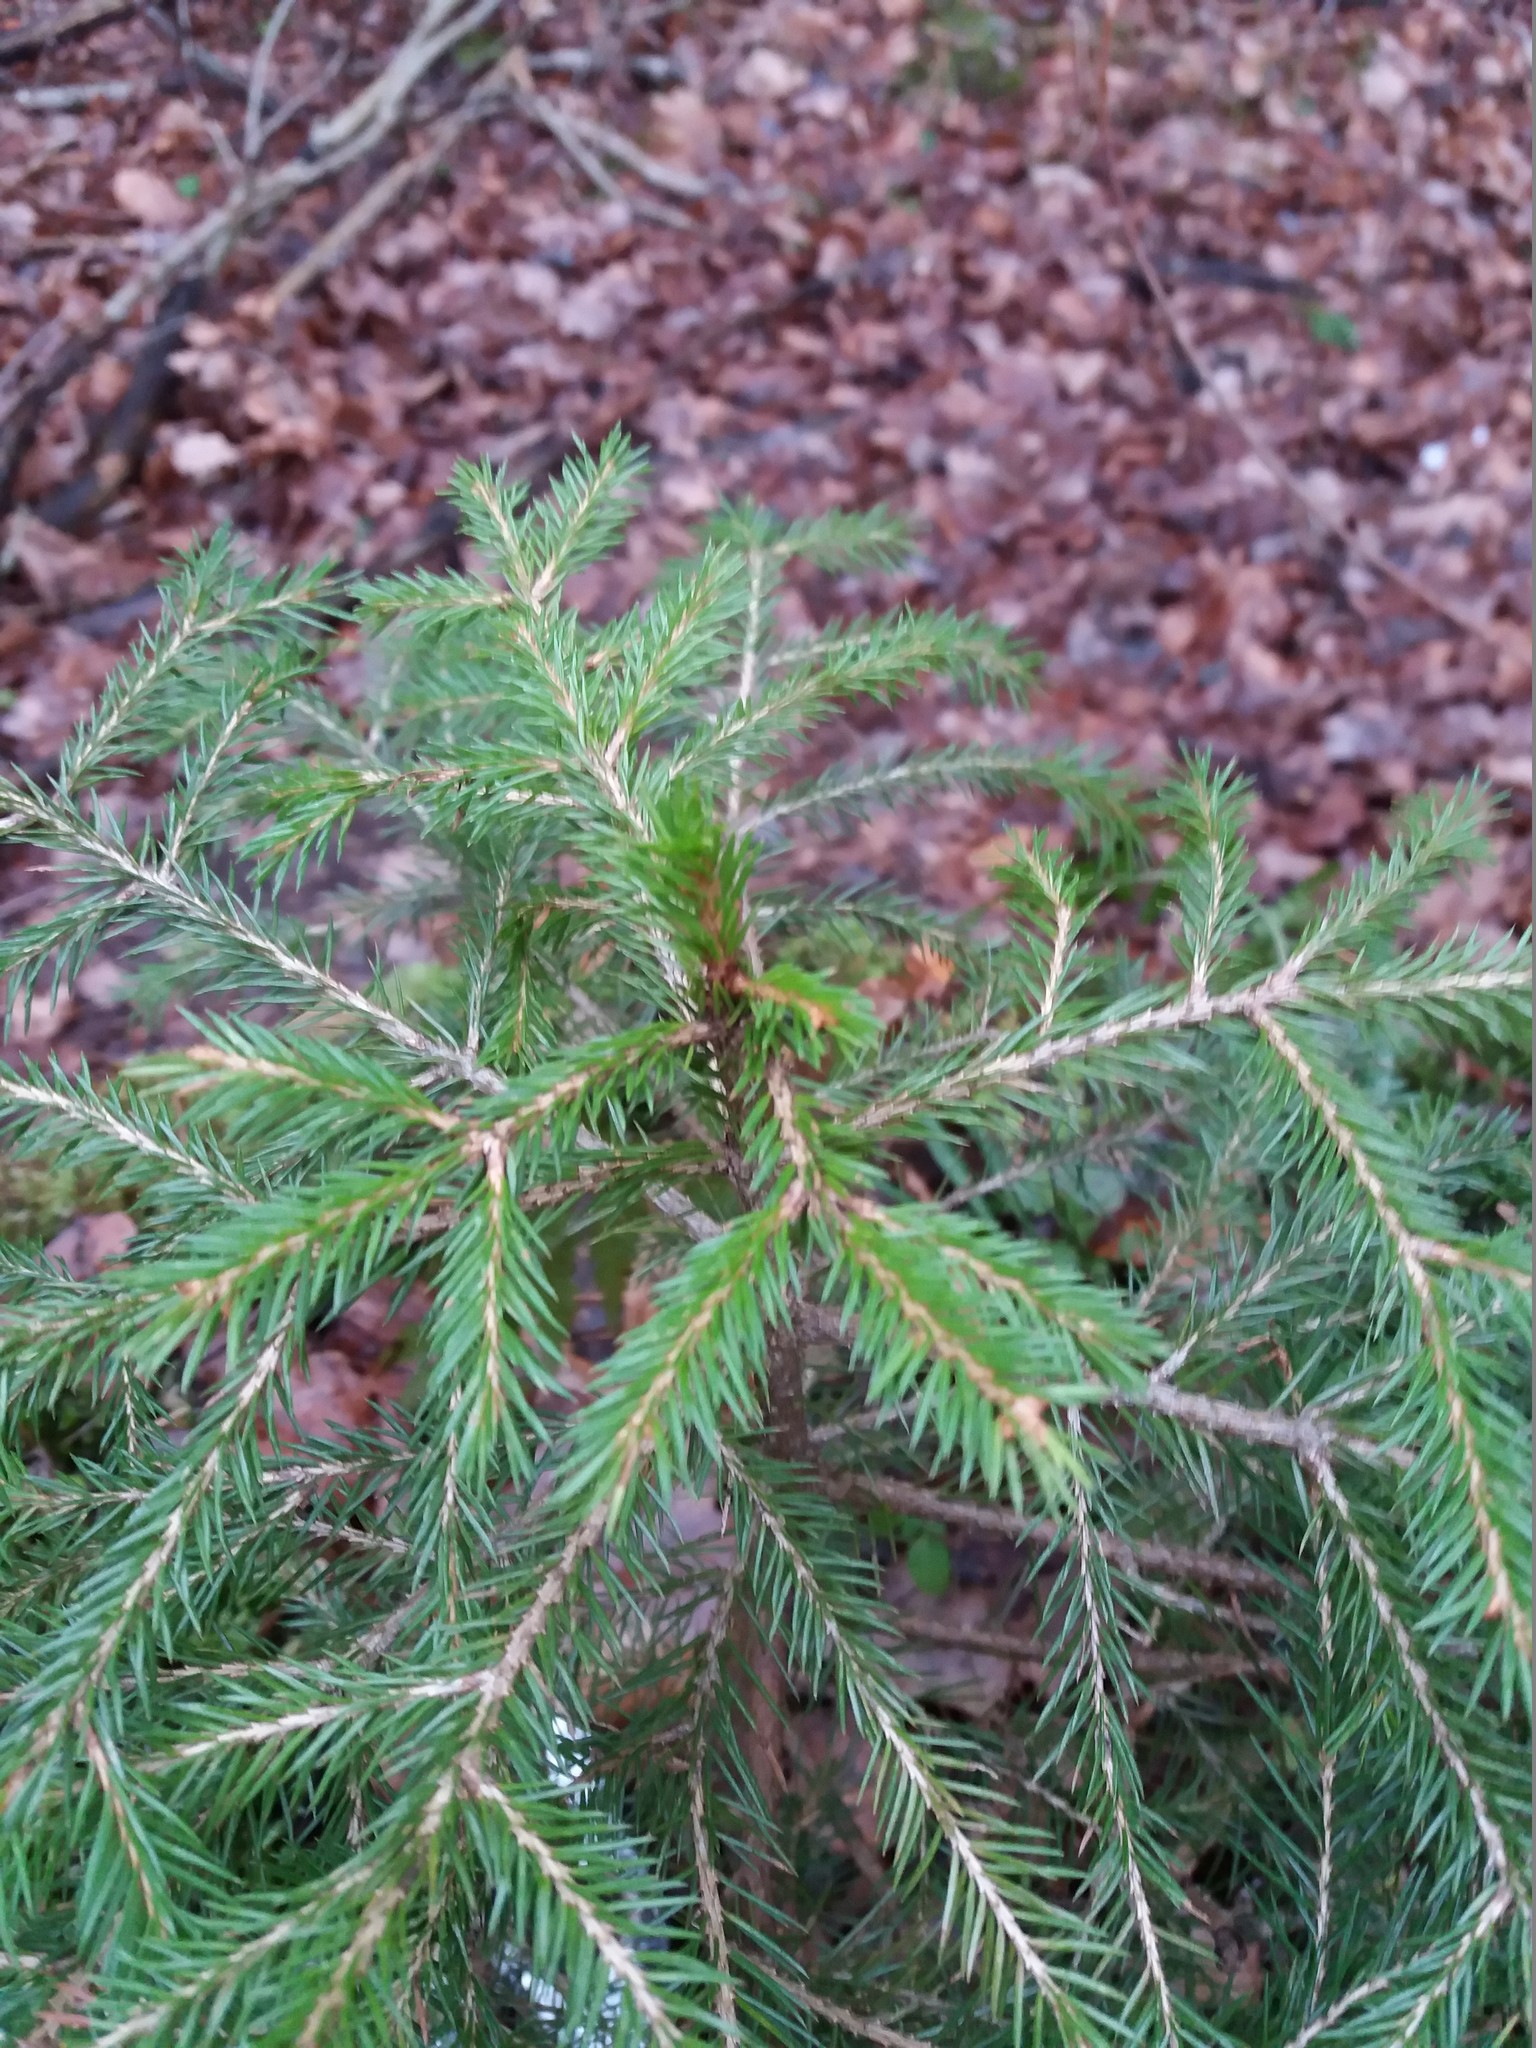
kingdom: Plantae
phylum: Tracheophyta
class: Pinopsida
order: Pinales
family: Pinaceae
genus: Picea
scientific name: Picea abies
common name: Norway spruce
